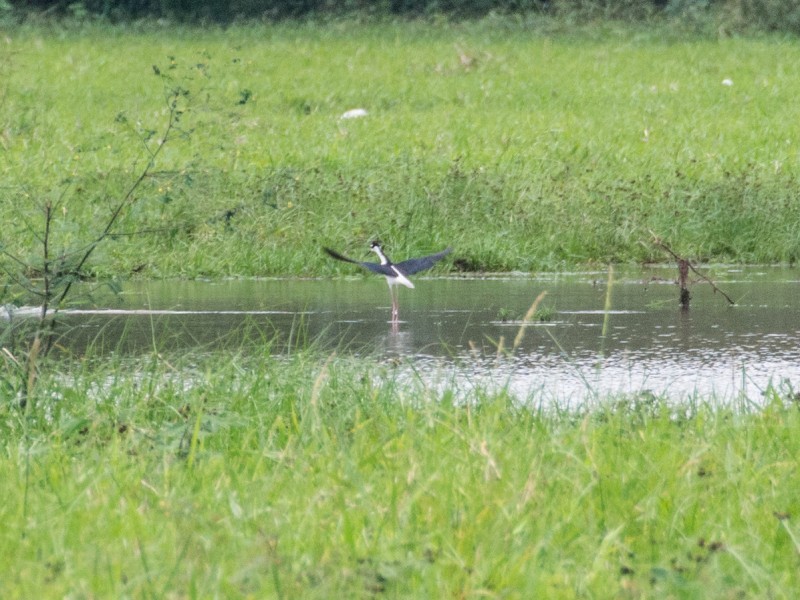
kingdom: Animalia
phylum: Chordata
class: Aves
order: Charadriiformes
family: Recurvirostridae
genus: Himantopus
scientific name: Himantopus mexicanus
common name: Black-necked stilt
